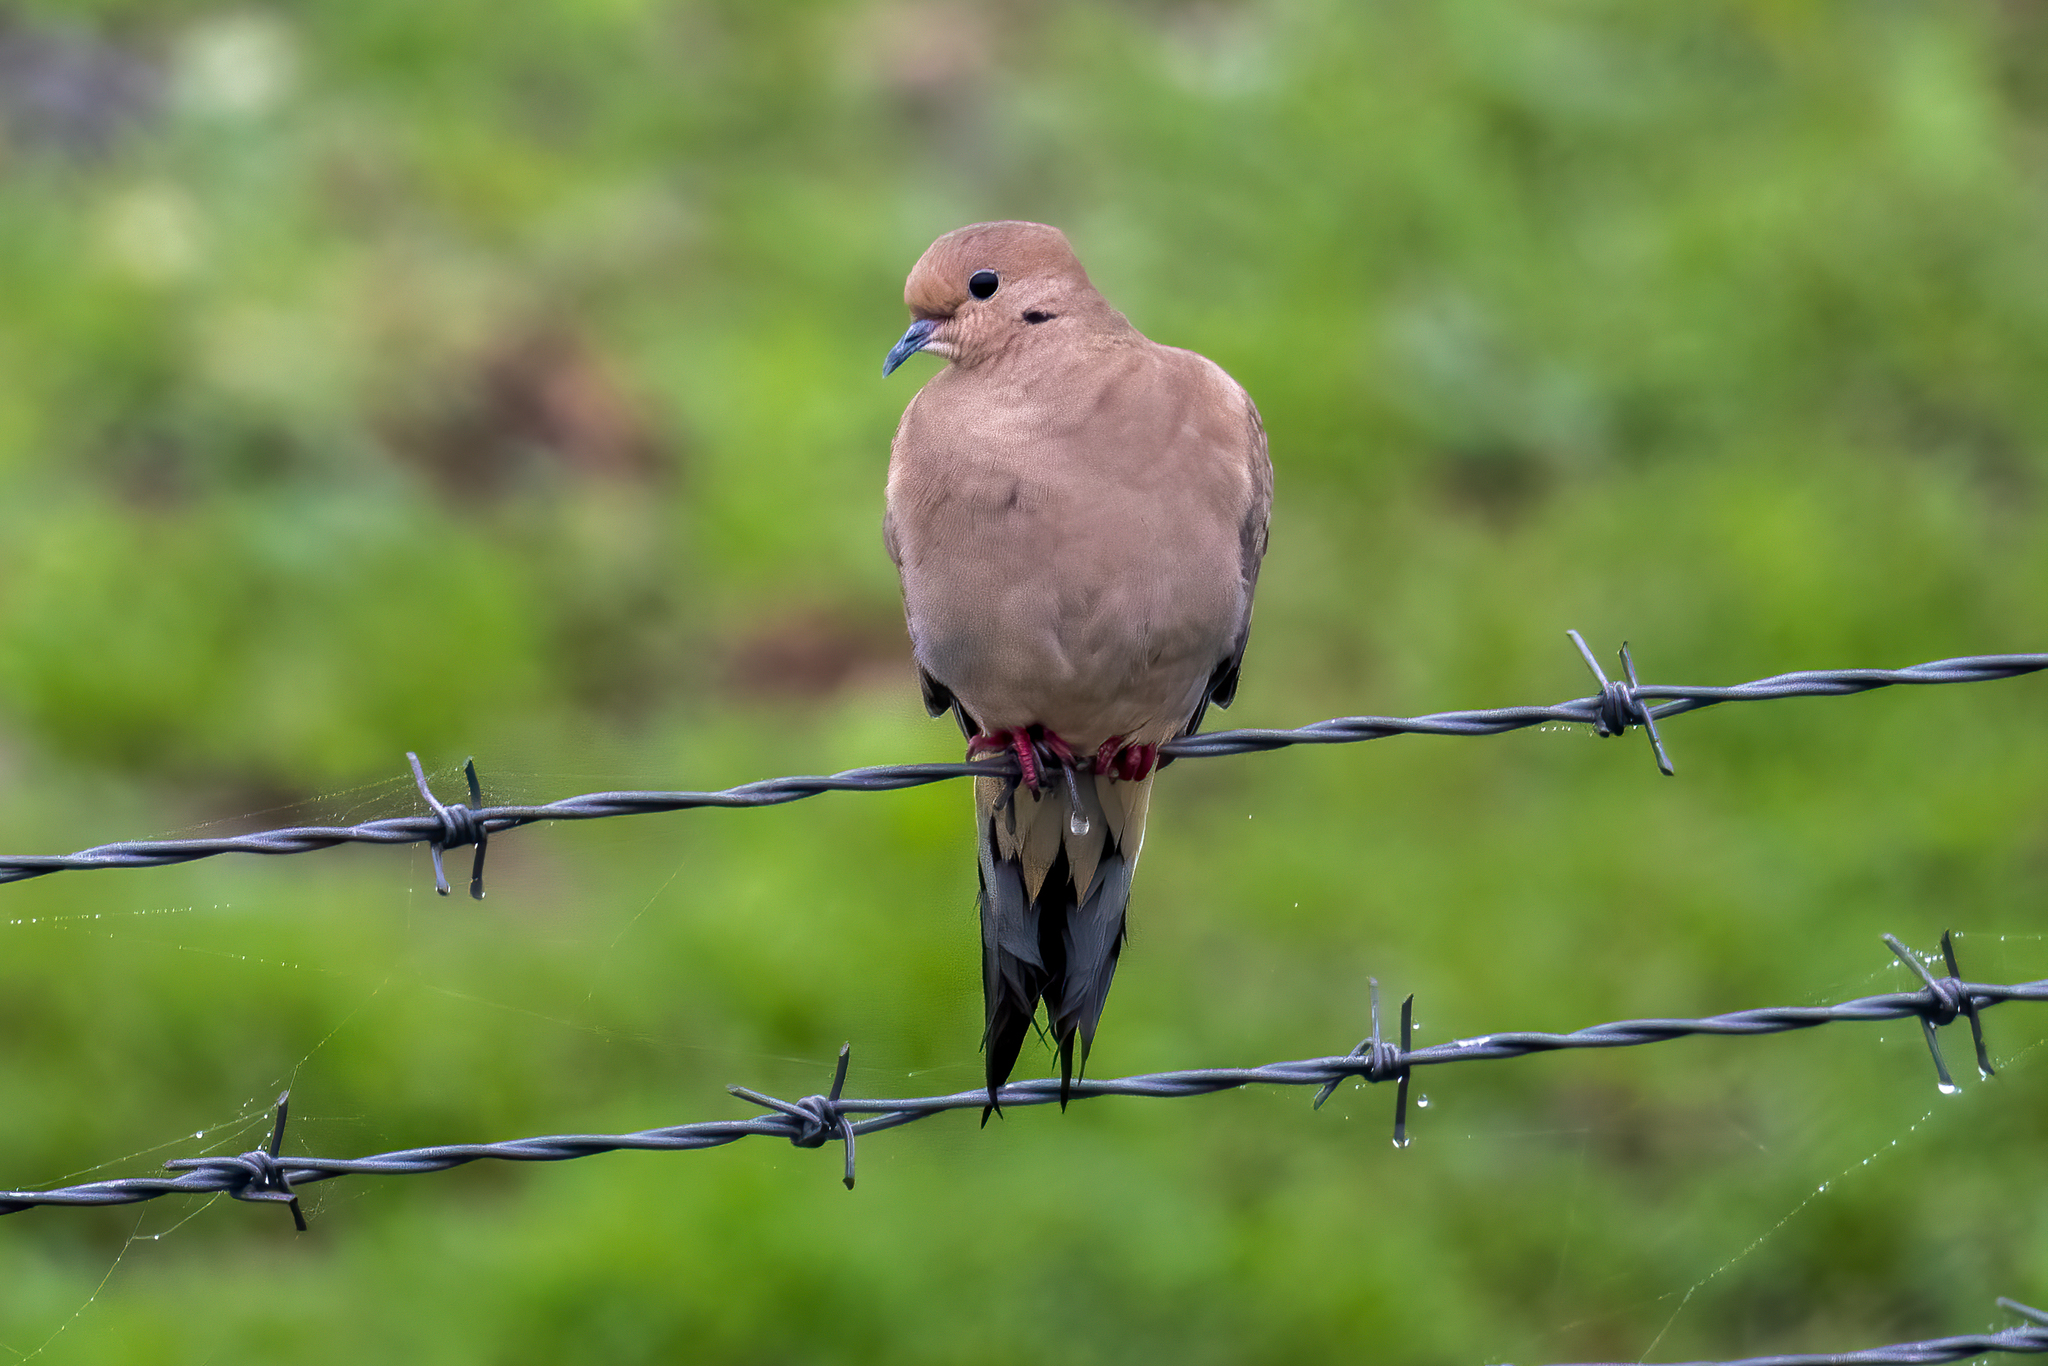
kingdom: Animalia
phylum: Chordata
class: Aves
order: Columbiformes
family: Columbidae
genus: Zenaida
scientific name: Zenaida macroura
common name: Mourning dove
